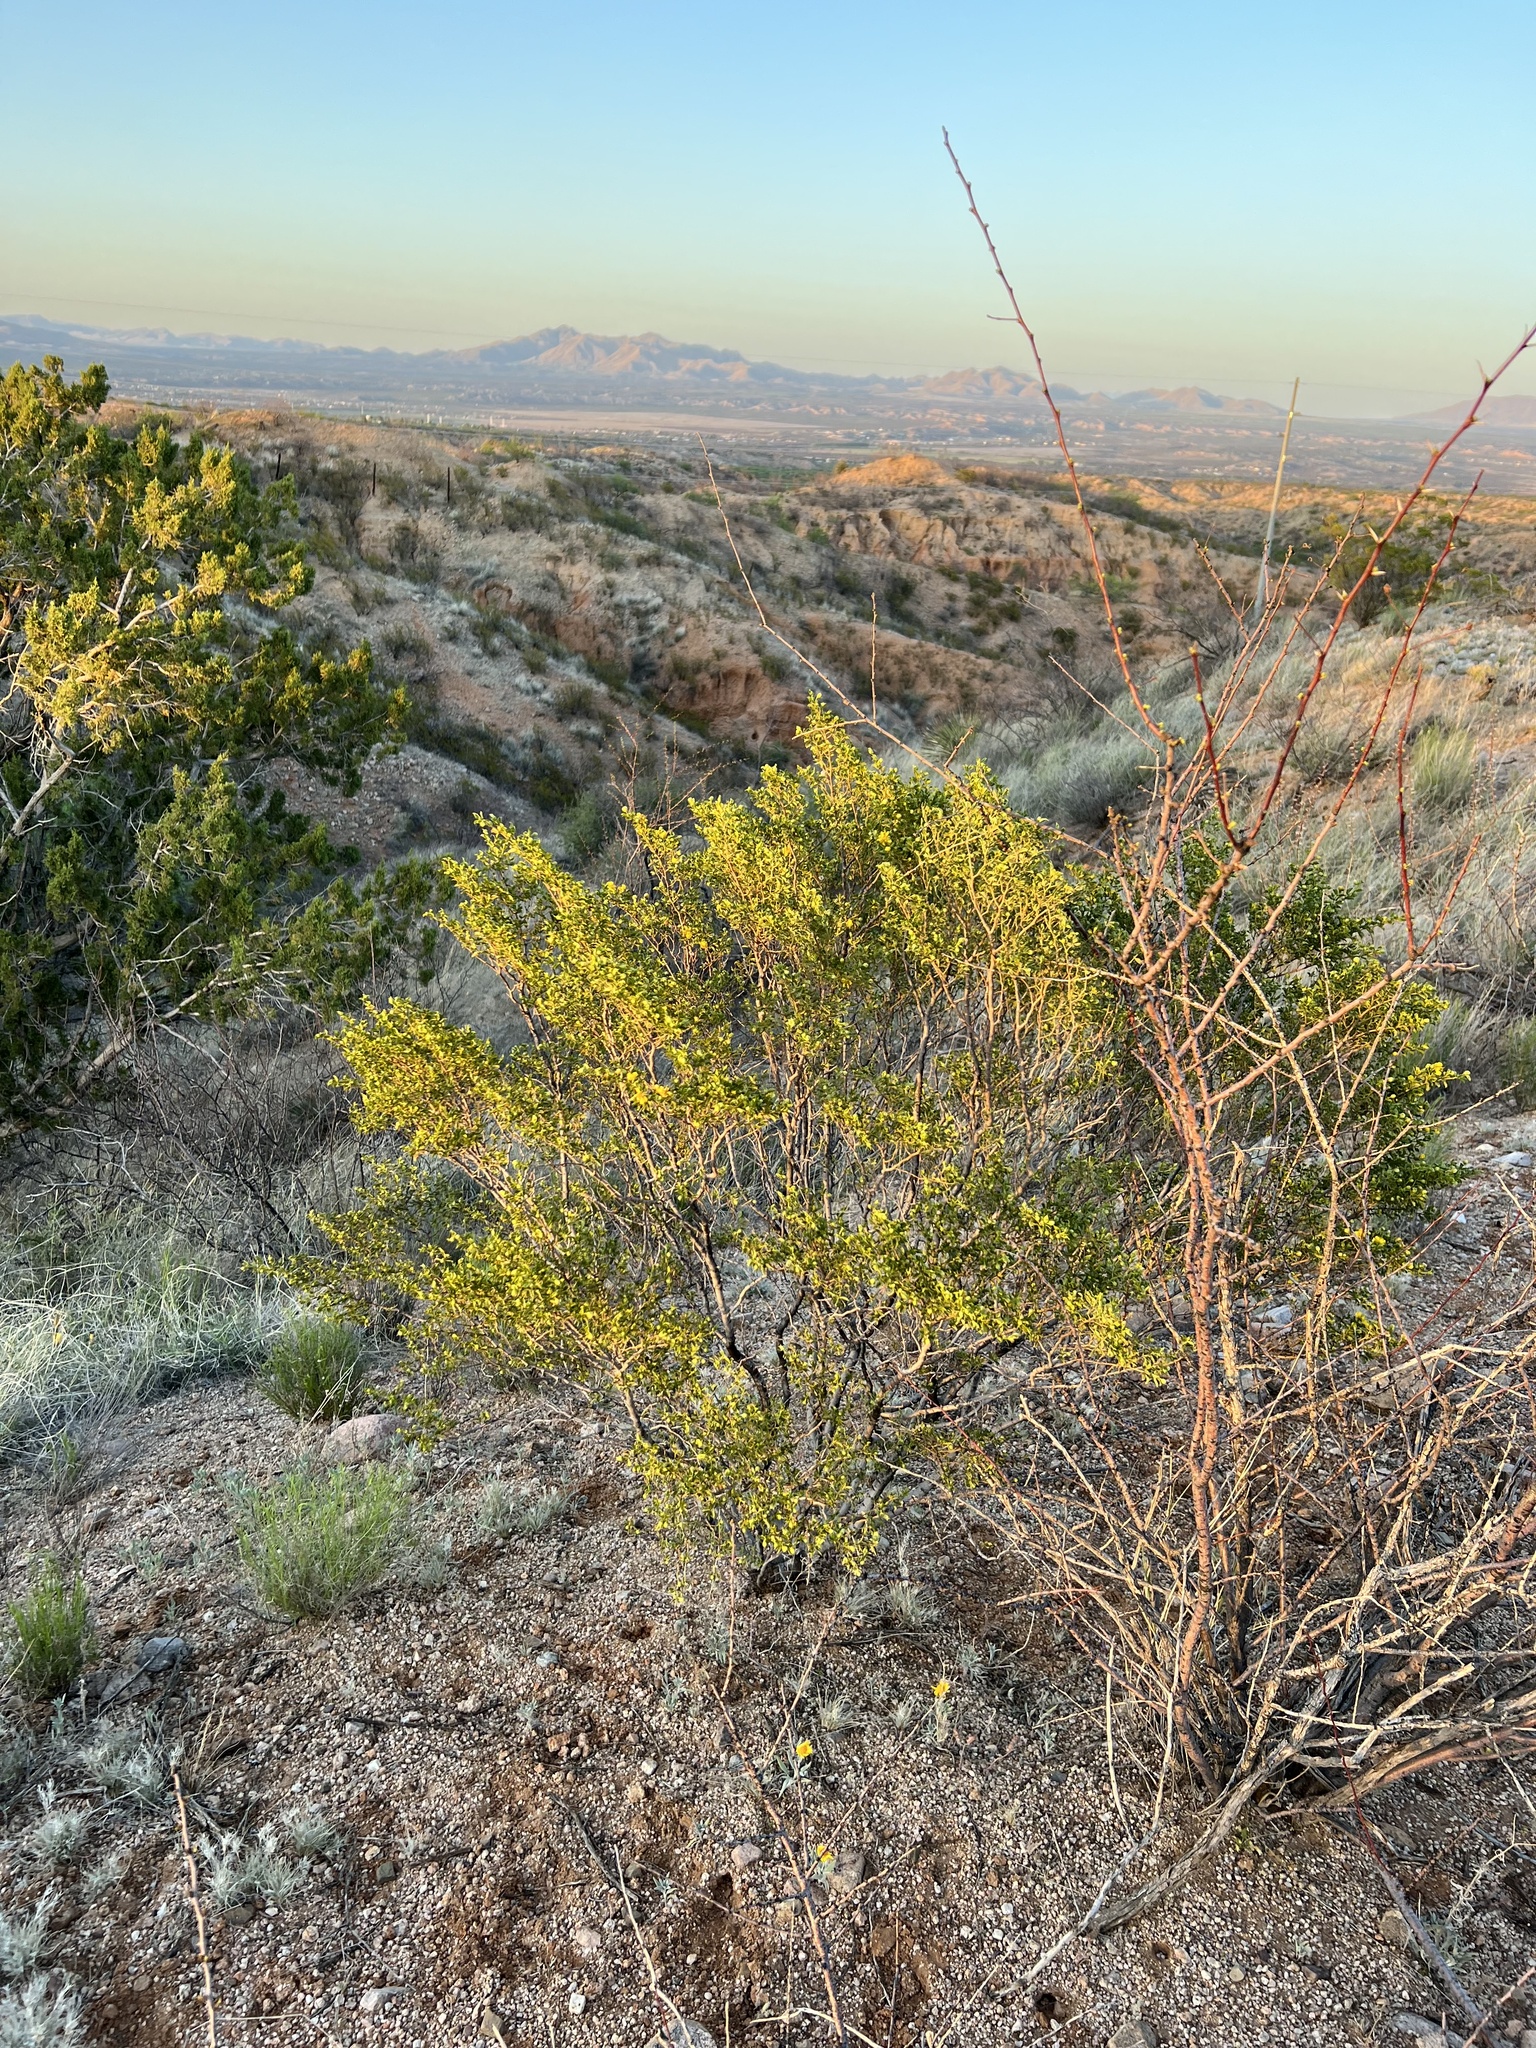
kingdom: Plantae
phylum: Tracheophyta
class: Magnoliopsida
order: Zygophyllales
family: Zygophyllaceae
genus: Larrea
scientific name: Larrea tridentata
